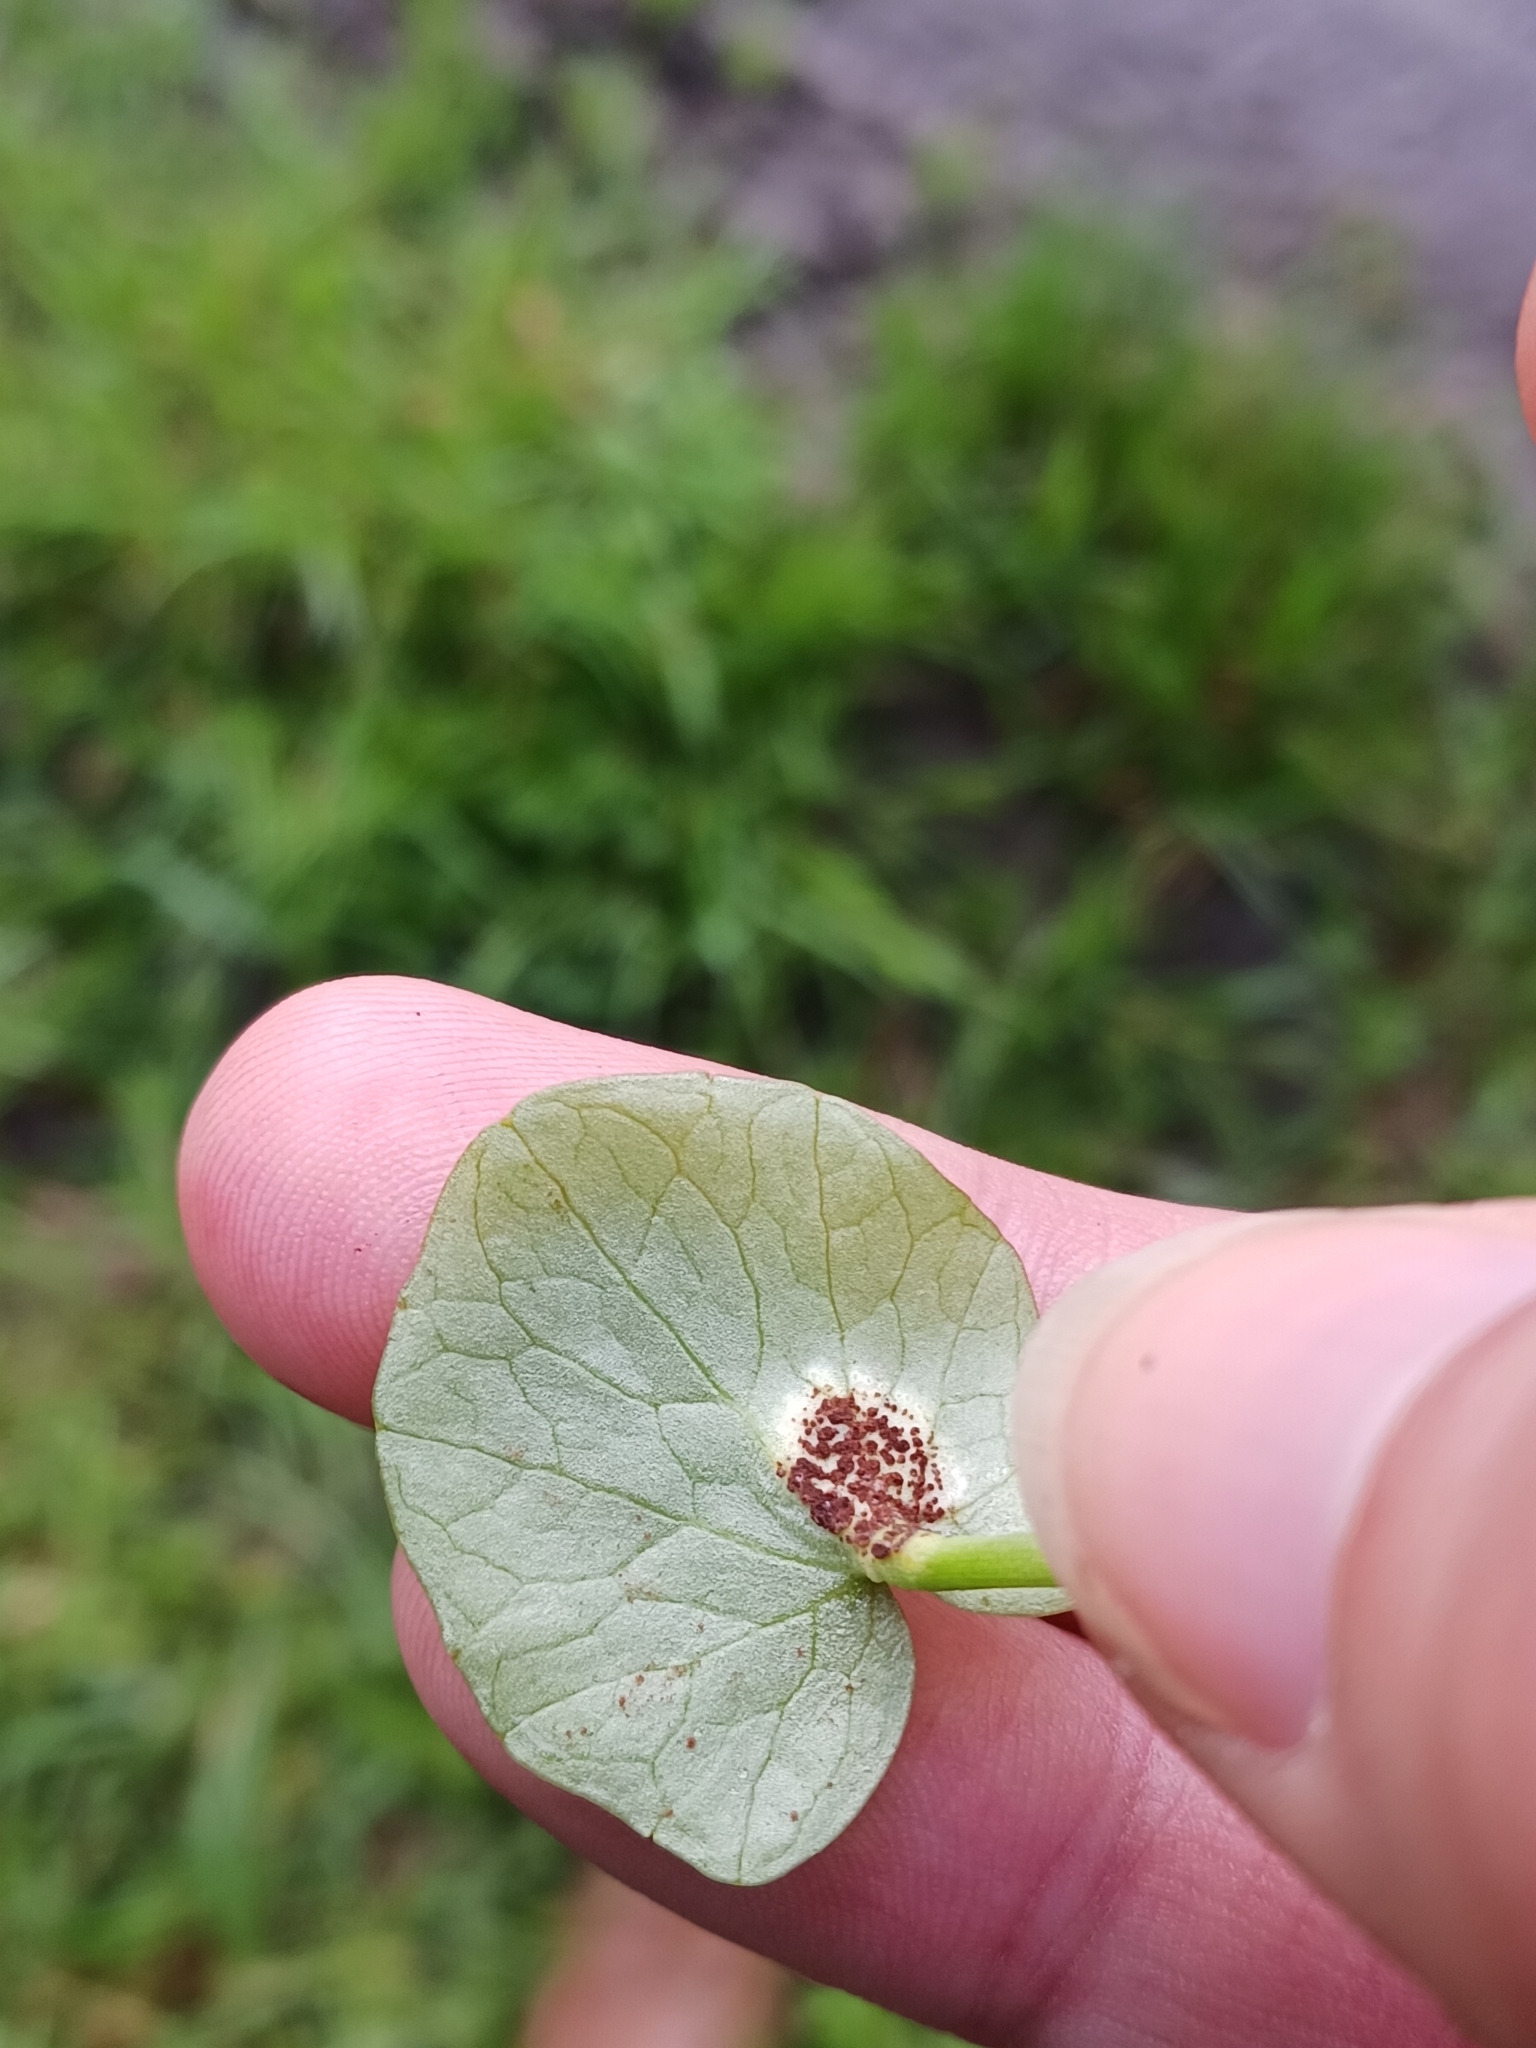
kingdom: Fungi
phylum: Basidiomycota
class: Pucciniomycetes
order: Pucciniales
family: Pucciniaceae
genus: Uromyces
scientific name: Uromyces ficariae
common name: Bitter chocolate rust
